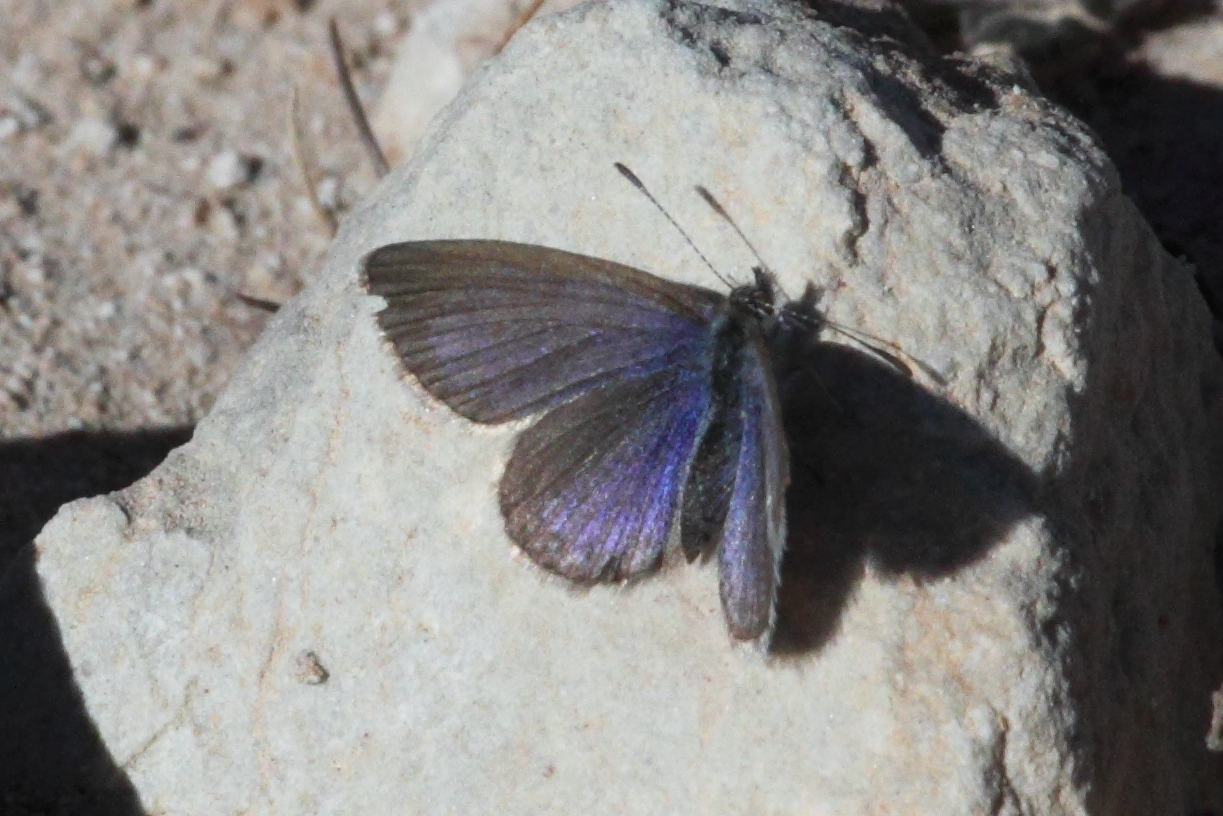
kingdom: Animalia
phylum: Arthropoda
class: Insecta
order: Lepidoptera
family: Lycaenidae
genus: Zizina
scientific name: Zizina labradus
